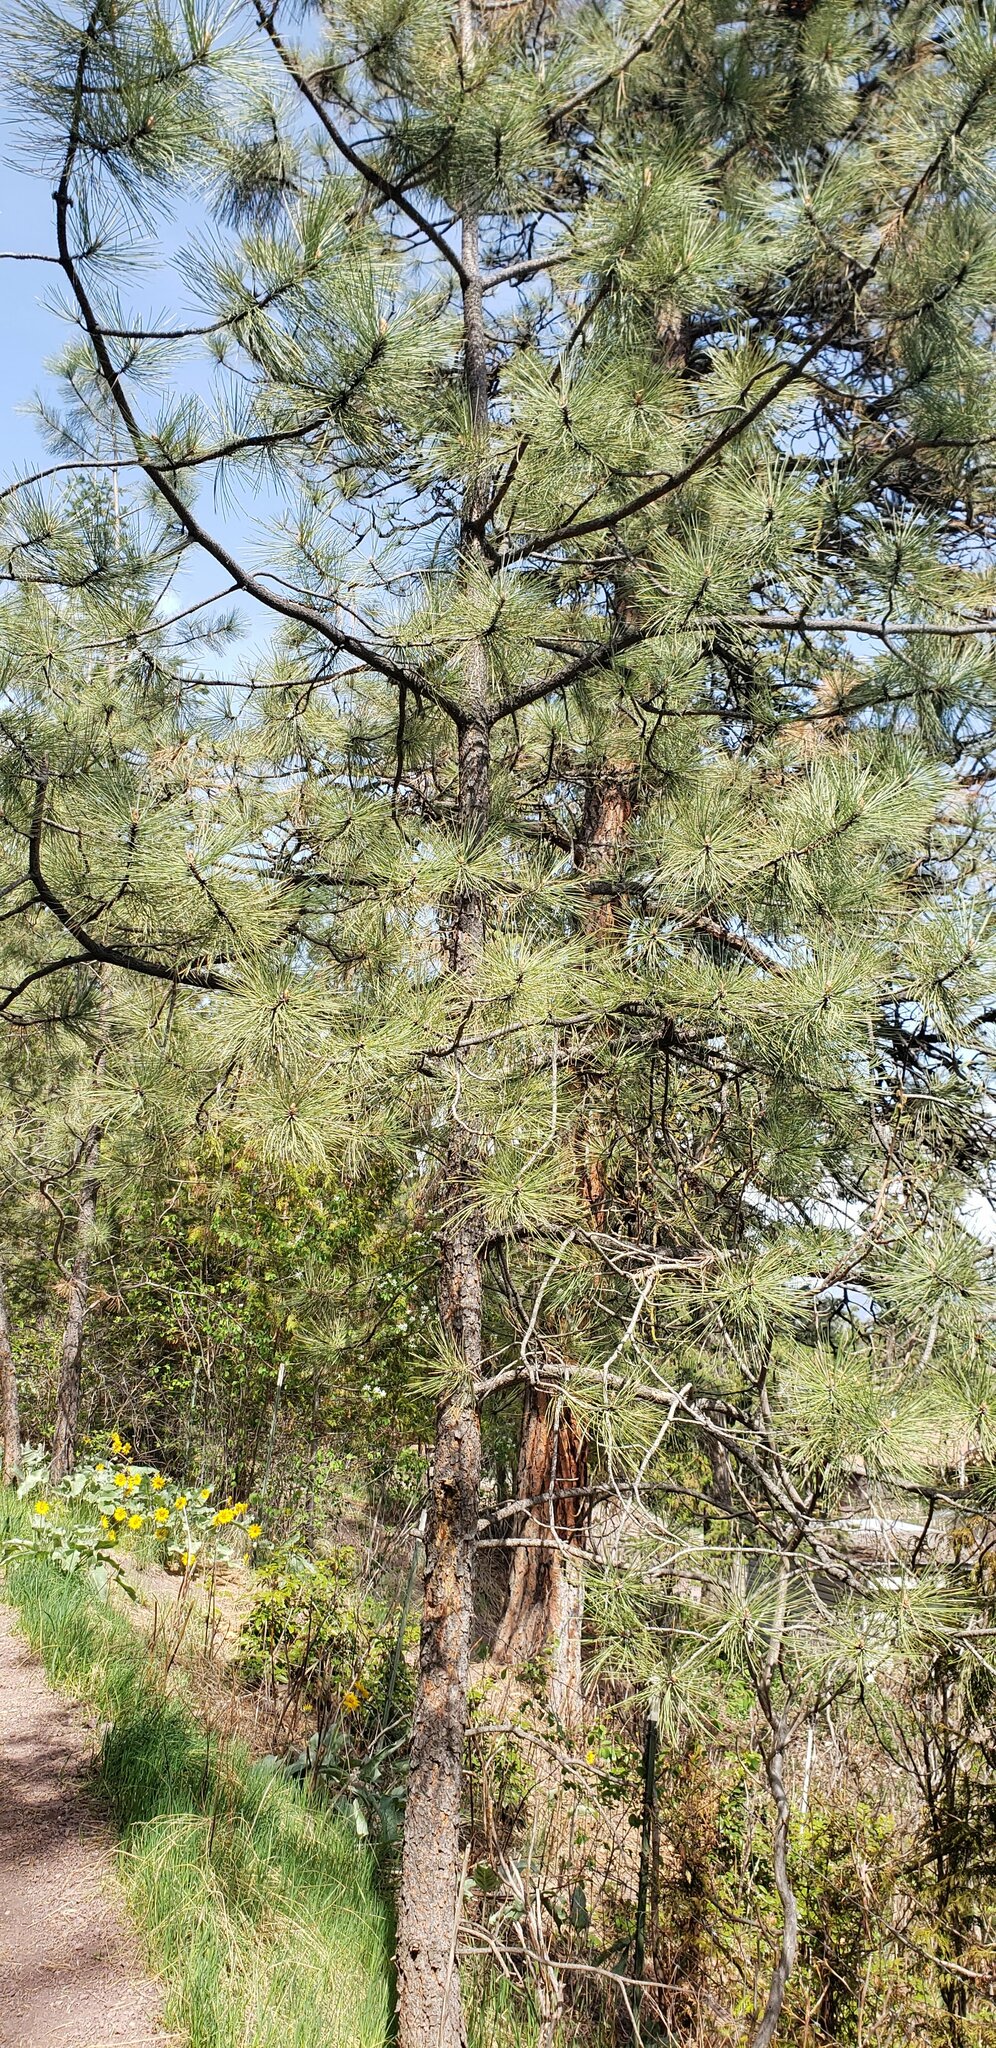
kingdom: Plantae
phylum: Tracheophyta
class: Pinopsida
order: Pinales
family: Pinaceae
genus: Pinus
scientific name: Pinus ponderosa
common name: Western yellow-pine
